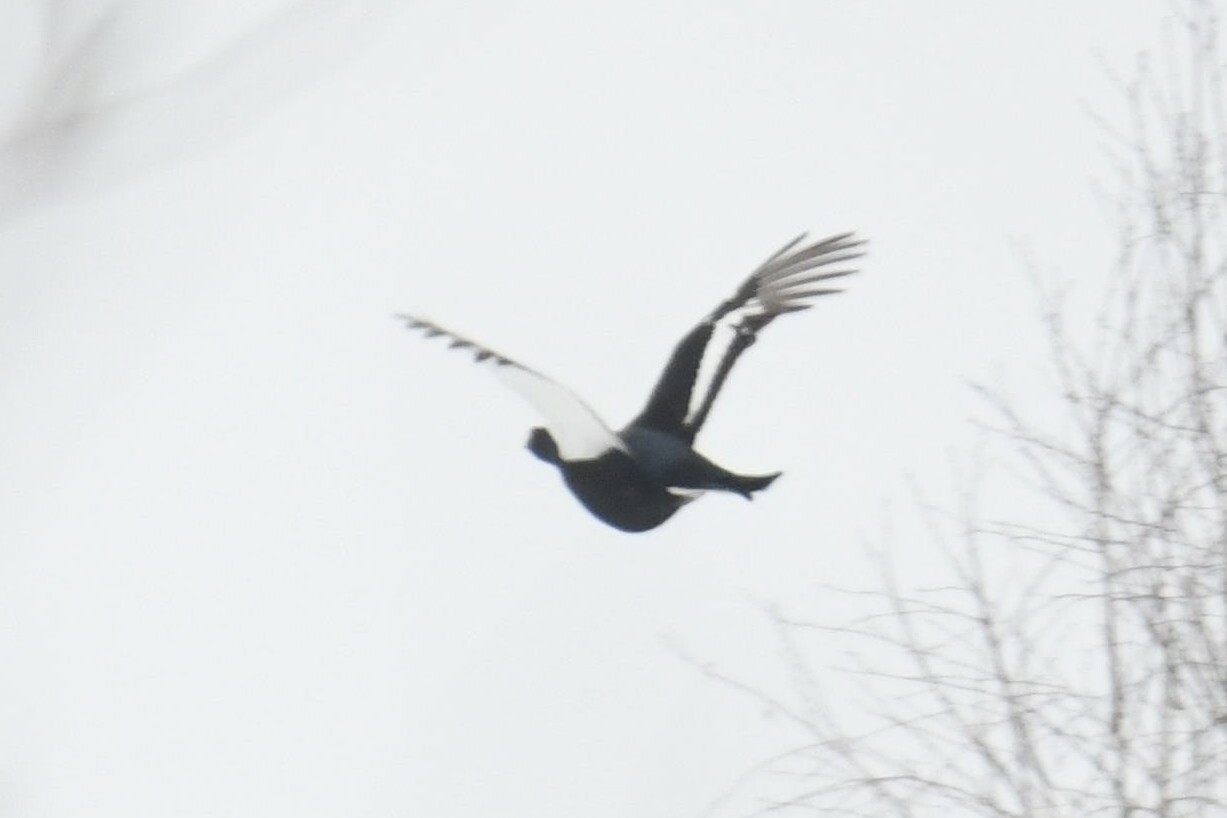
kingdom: Animalia
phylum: Chordata
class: Aves
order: Galliformes
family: Phasianidae
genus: Lyrurus
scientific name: Lyrurus tetrix
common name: Black grouse
